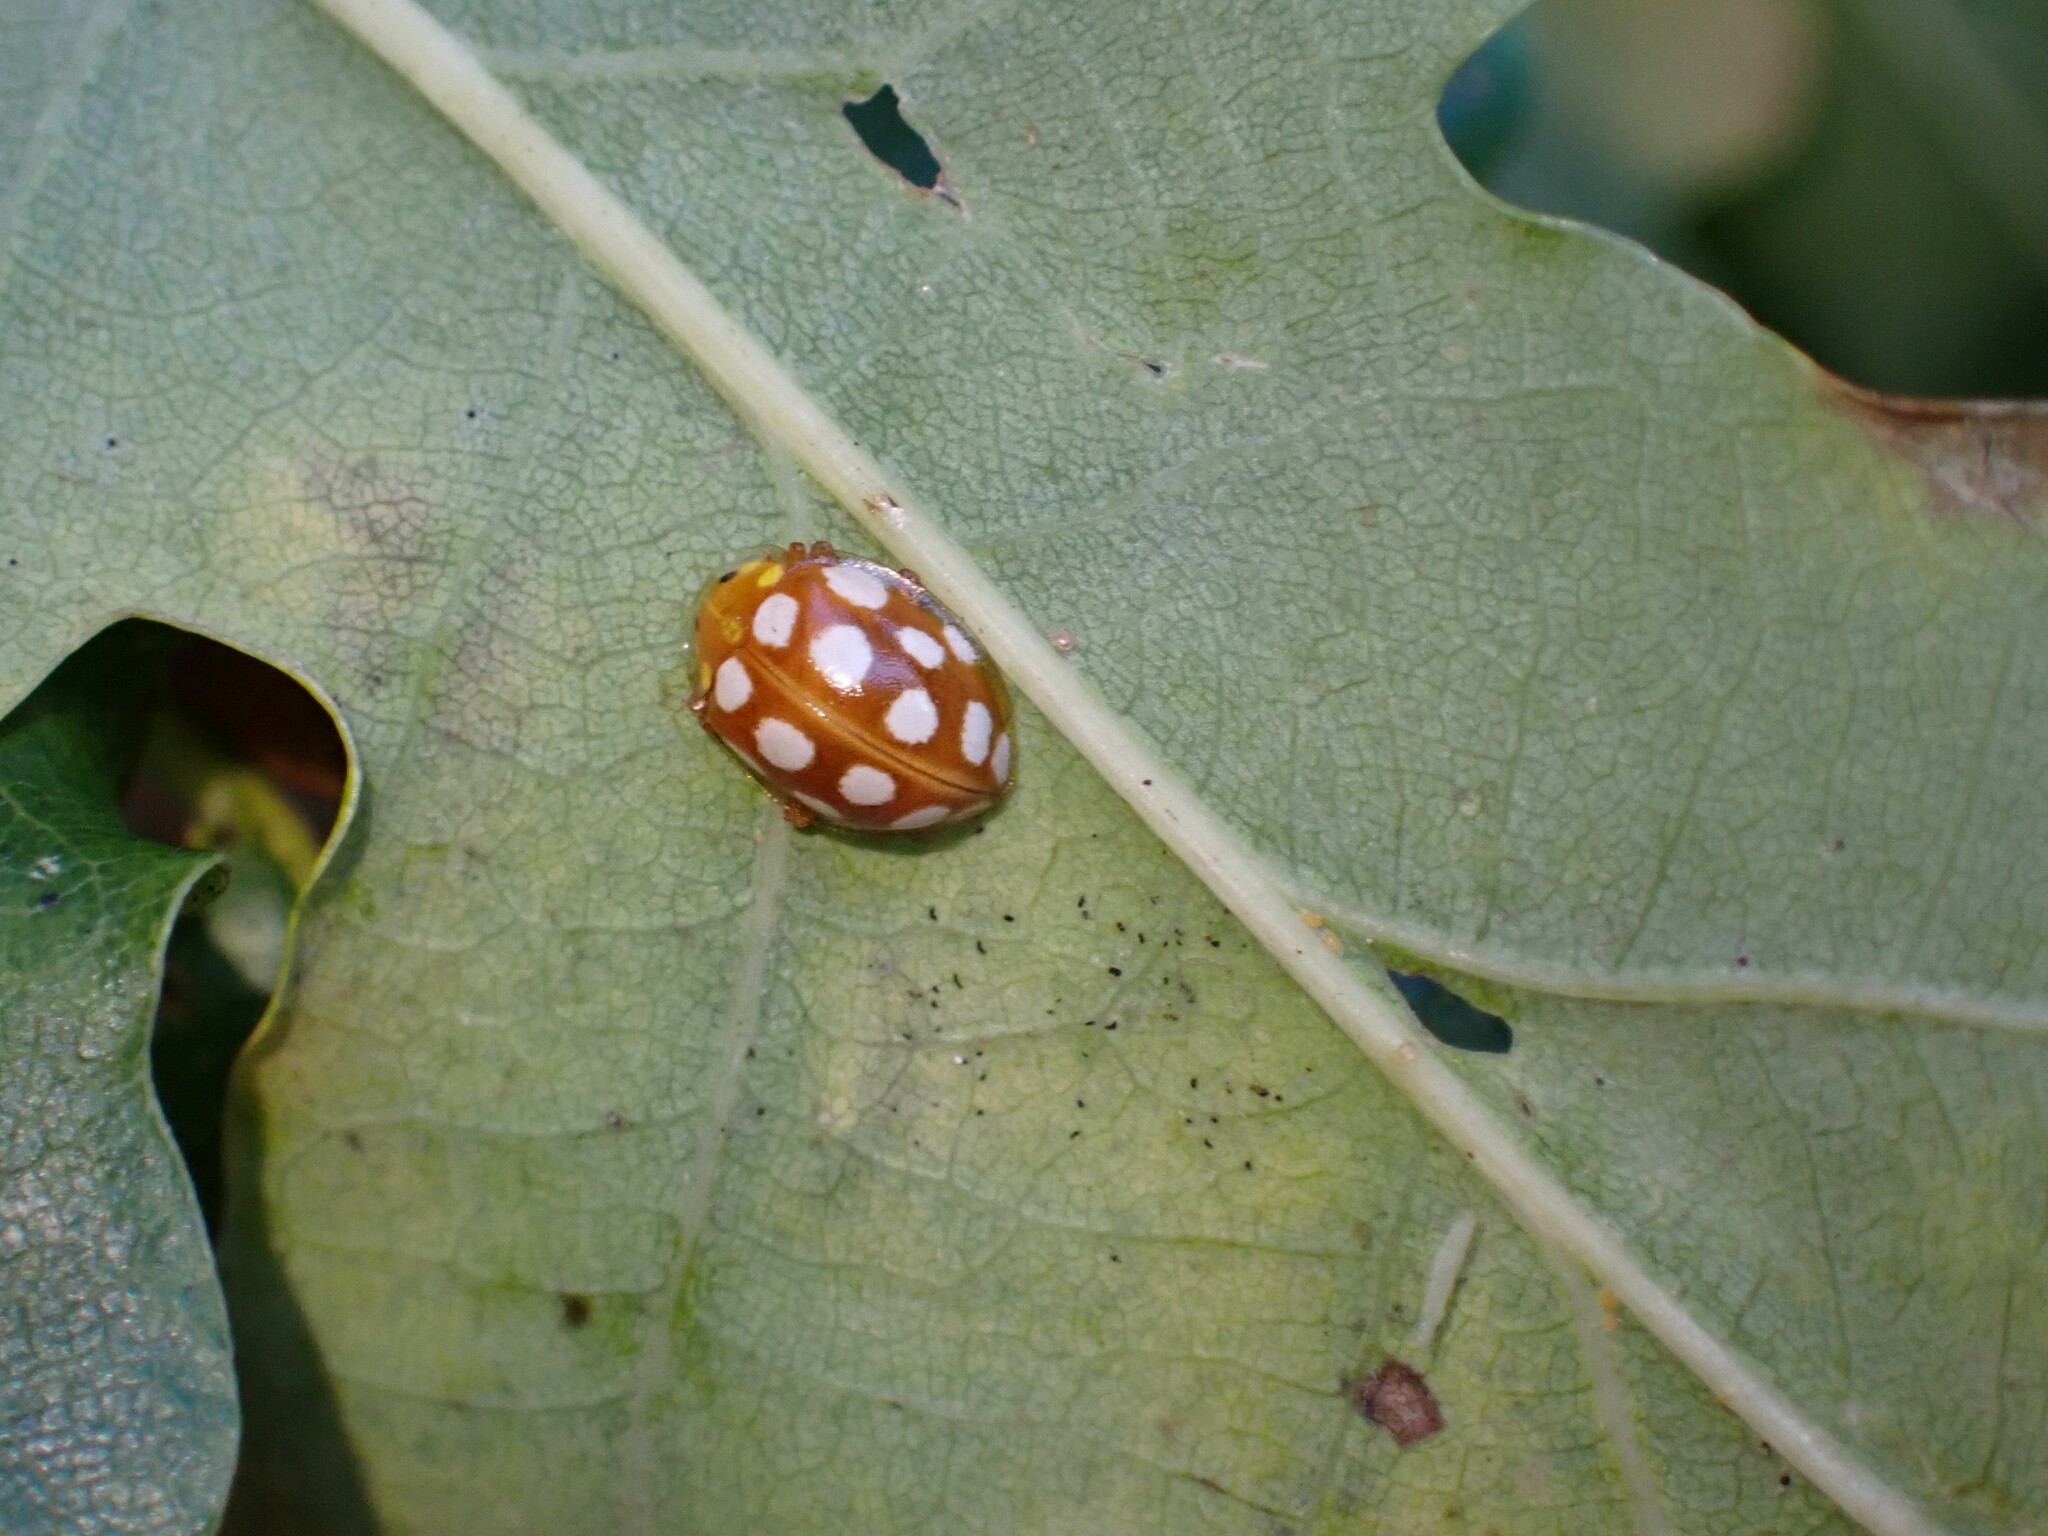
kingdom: Animalia
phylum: Arthropoda
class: Insecta
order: Coleoptera
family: Coccinellidae
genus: Halyzia
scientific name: Halyzia sedecimguttata
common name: Orange ladybird
